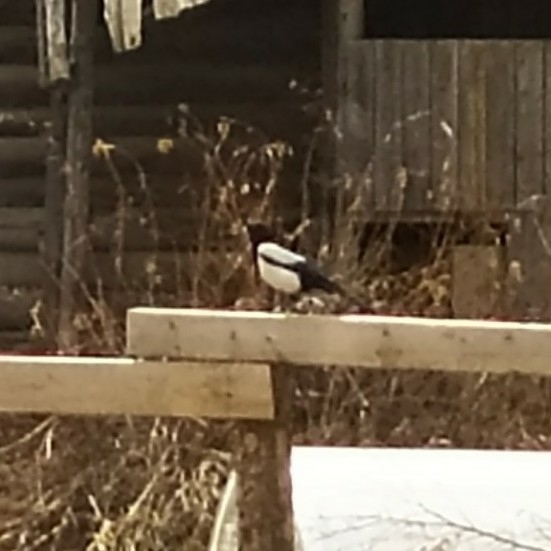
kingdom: Animalia
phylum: Chordata
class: Aves
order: Passeriformes
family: Corvidae
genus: Pica
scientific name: Pica pica
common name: Eurasian magpie
